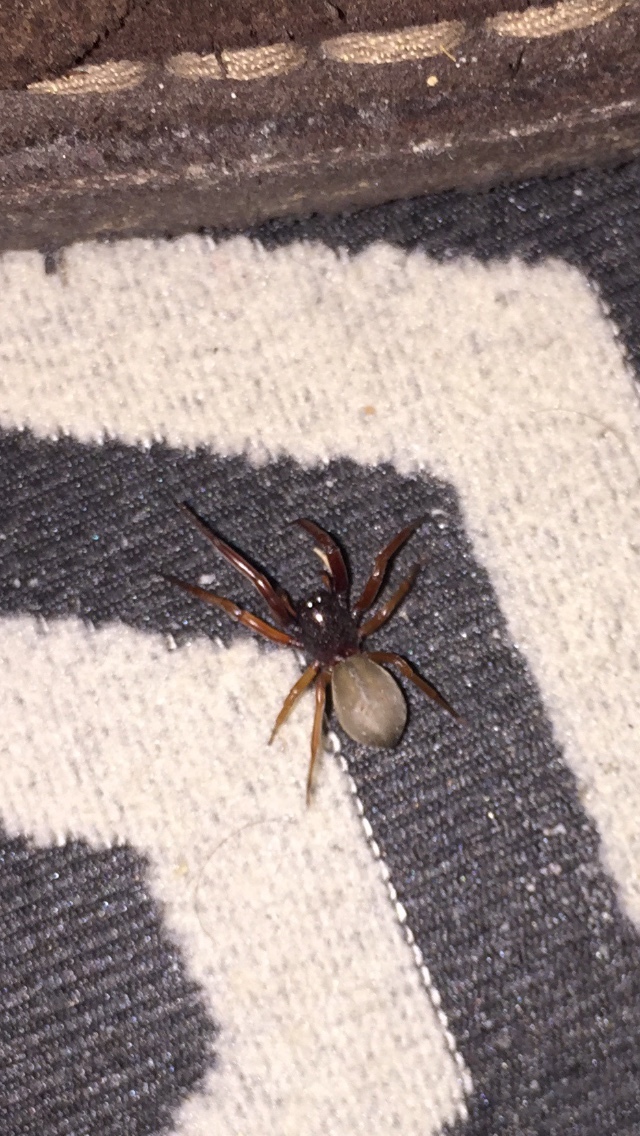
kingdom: Animalia
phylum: Arthropoda
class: Arachnida
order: Araneae
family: Trachelidae
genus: Trachelas
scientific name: Trachelas tranquillus
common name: Broad-faced sac spider
